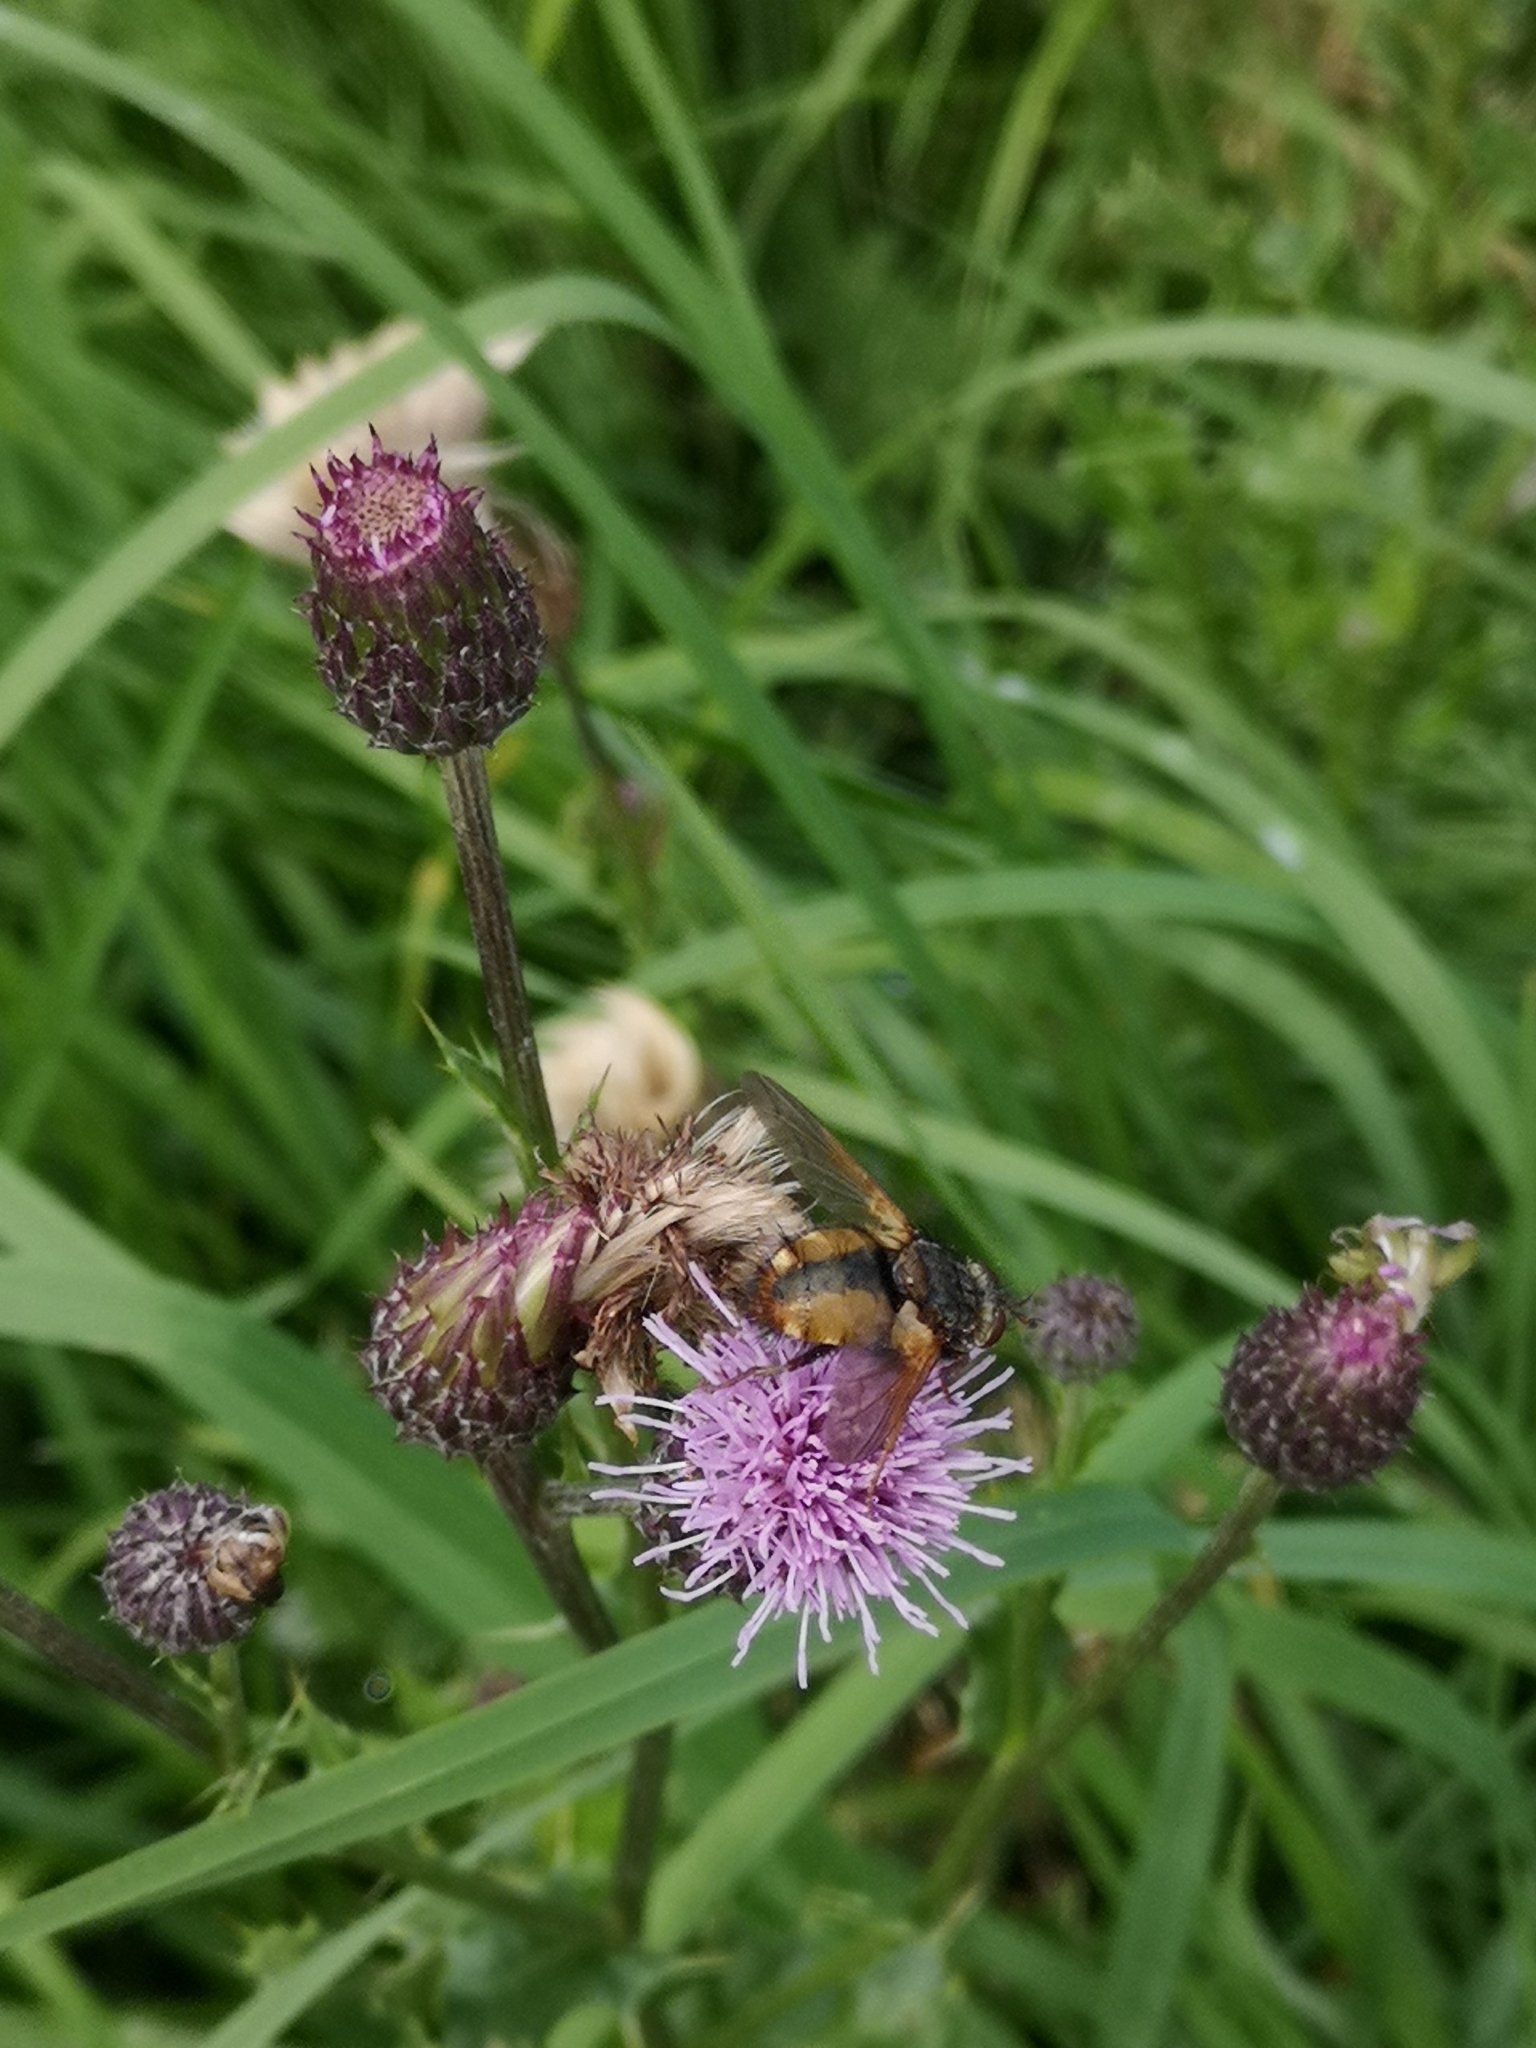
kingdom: Animalia
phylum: Arthropoda
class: Insecta
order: Diptera
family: Tachinidae
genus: Tachina
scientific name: Tachina fera
